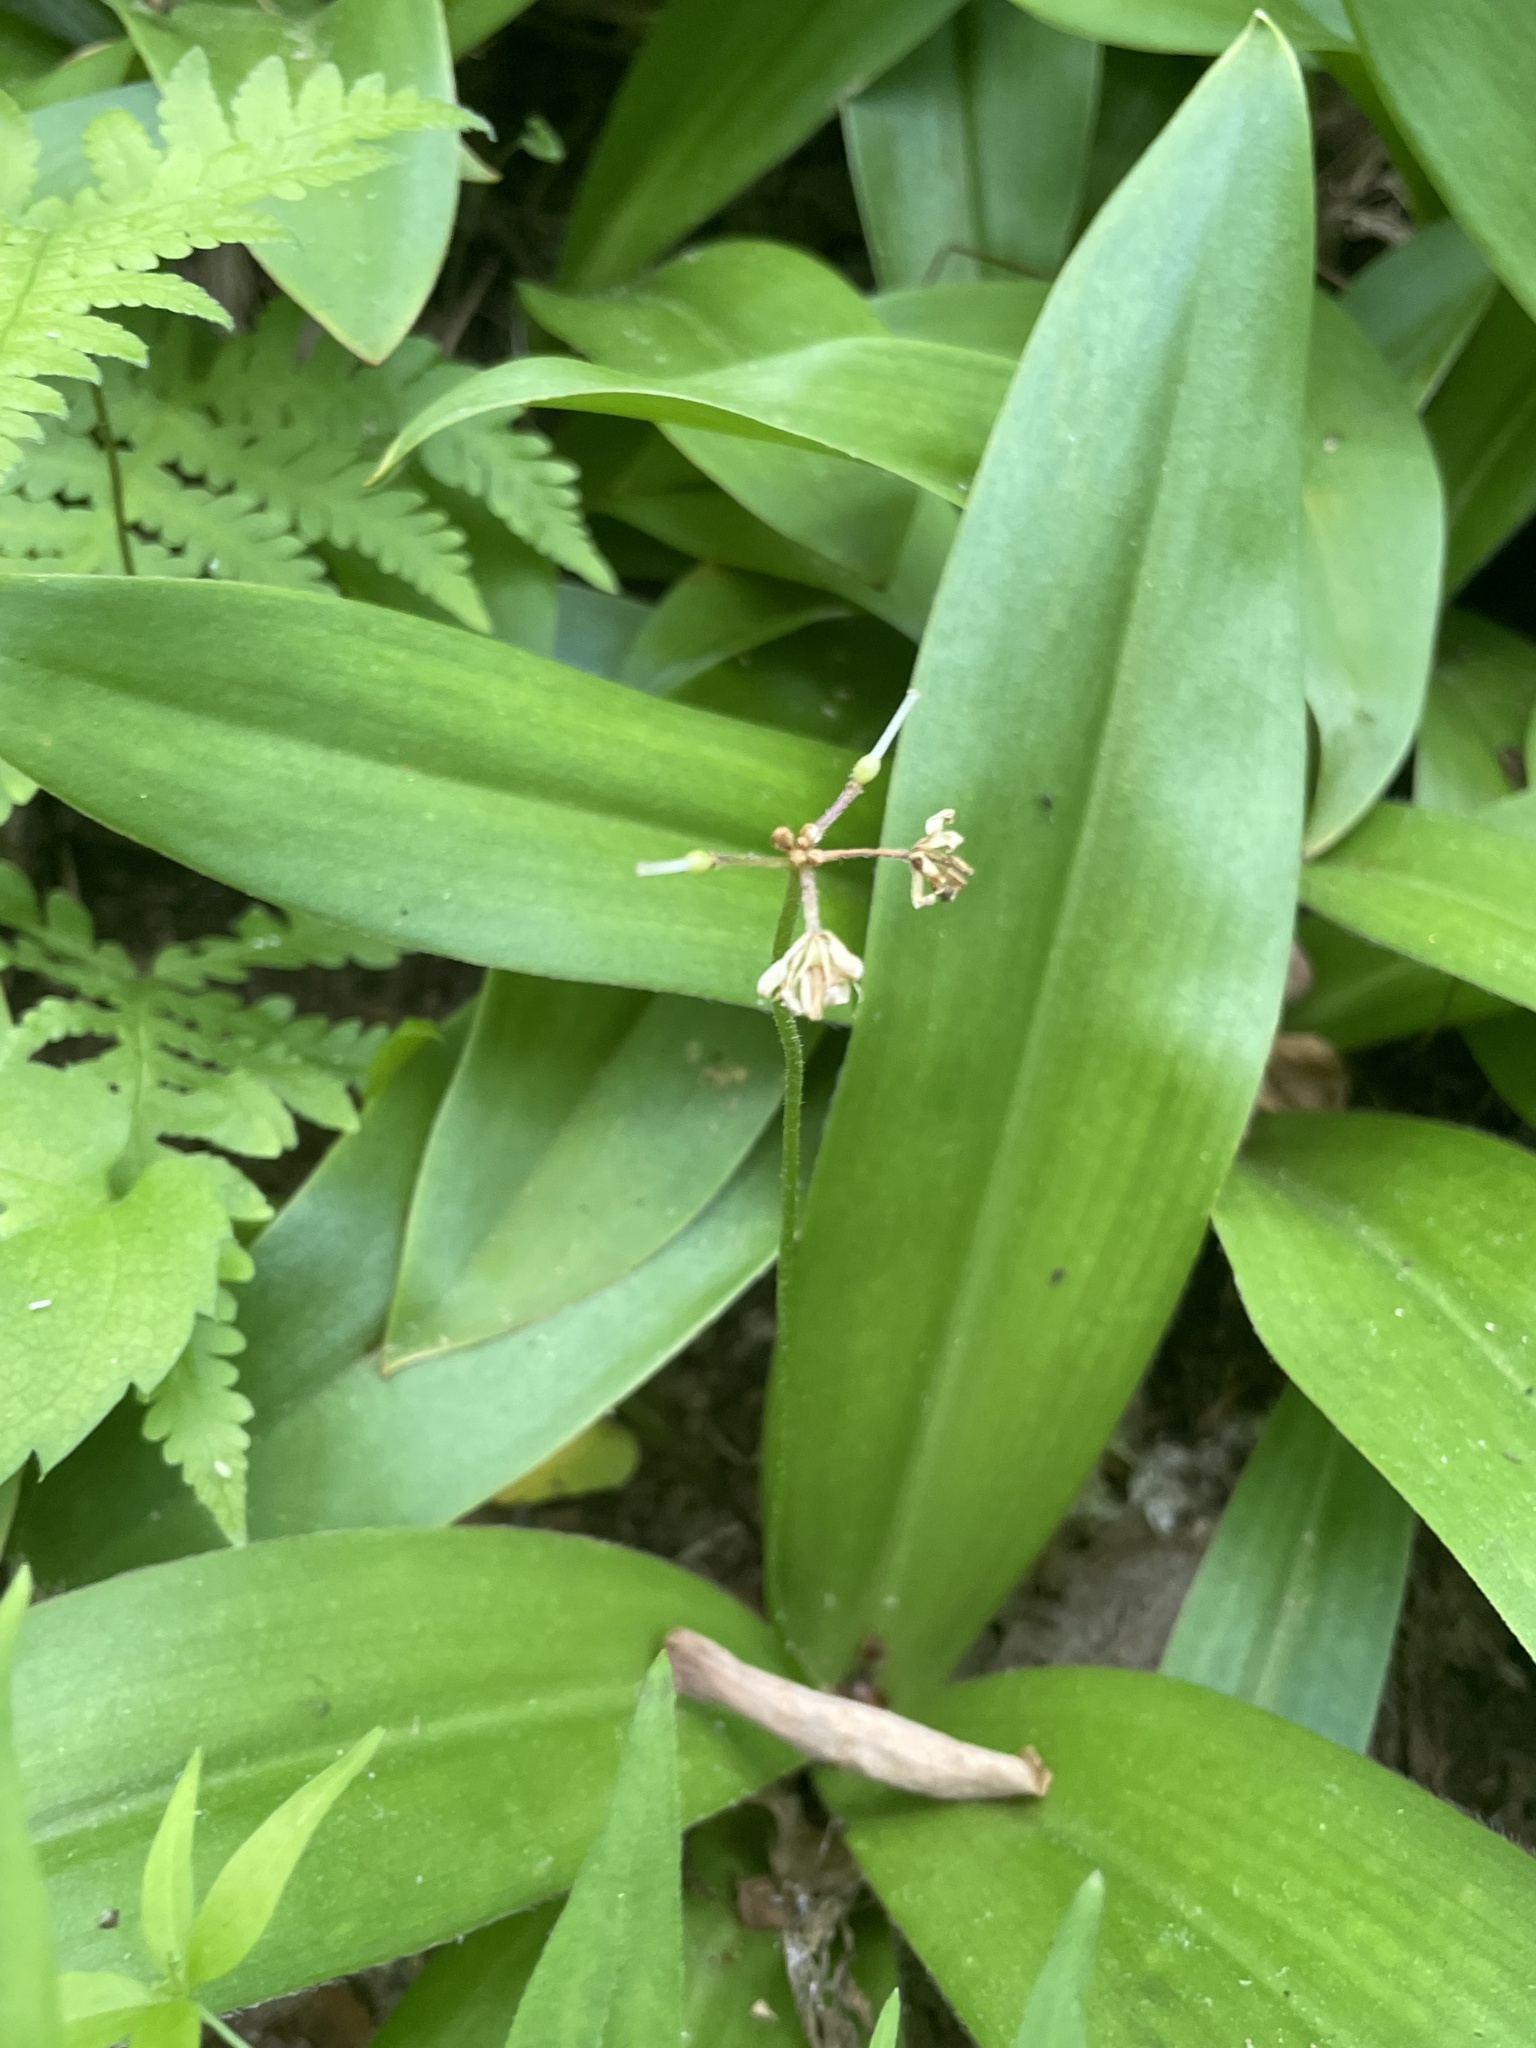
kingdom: Plantae
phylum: Tracheophyta
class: Liliopsida
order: Liliales
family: Liliaceae
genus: Clintonia
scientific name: Clintonia umbellulata
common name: Speckle wood-lily
